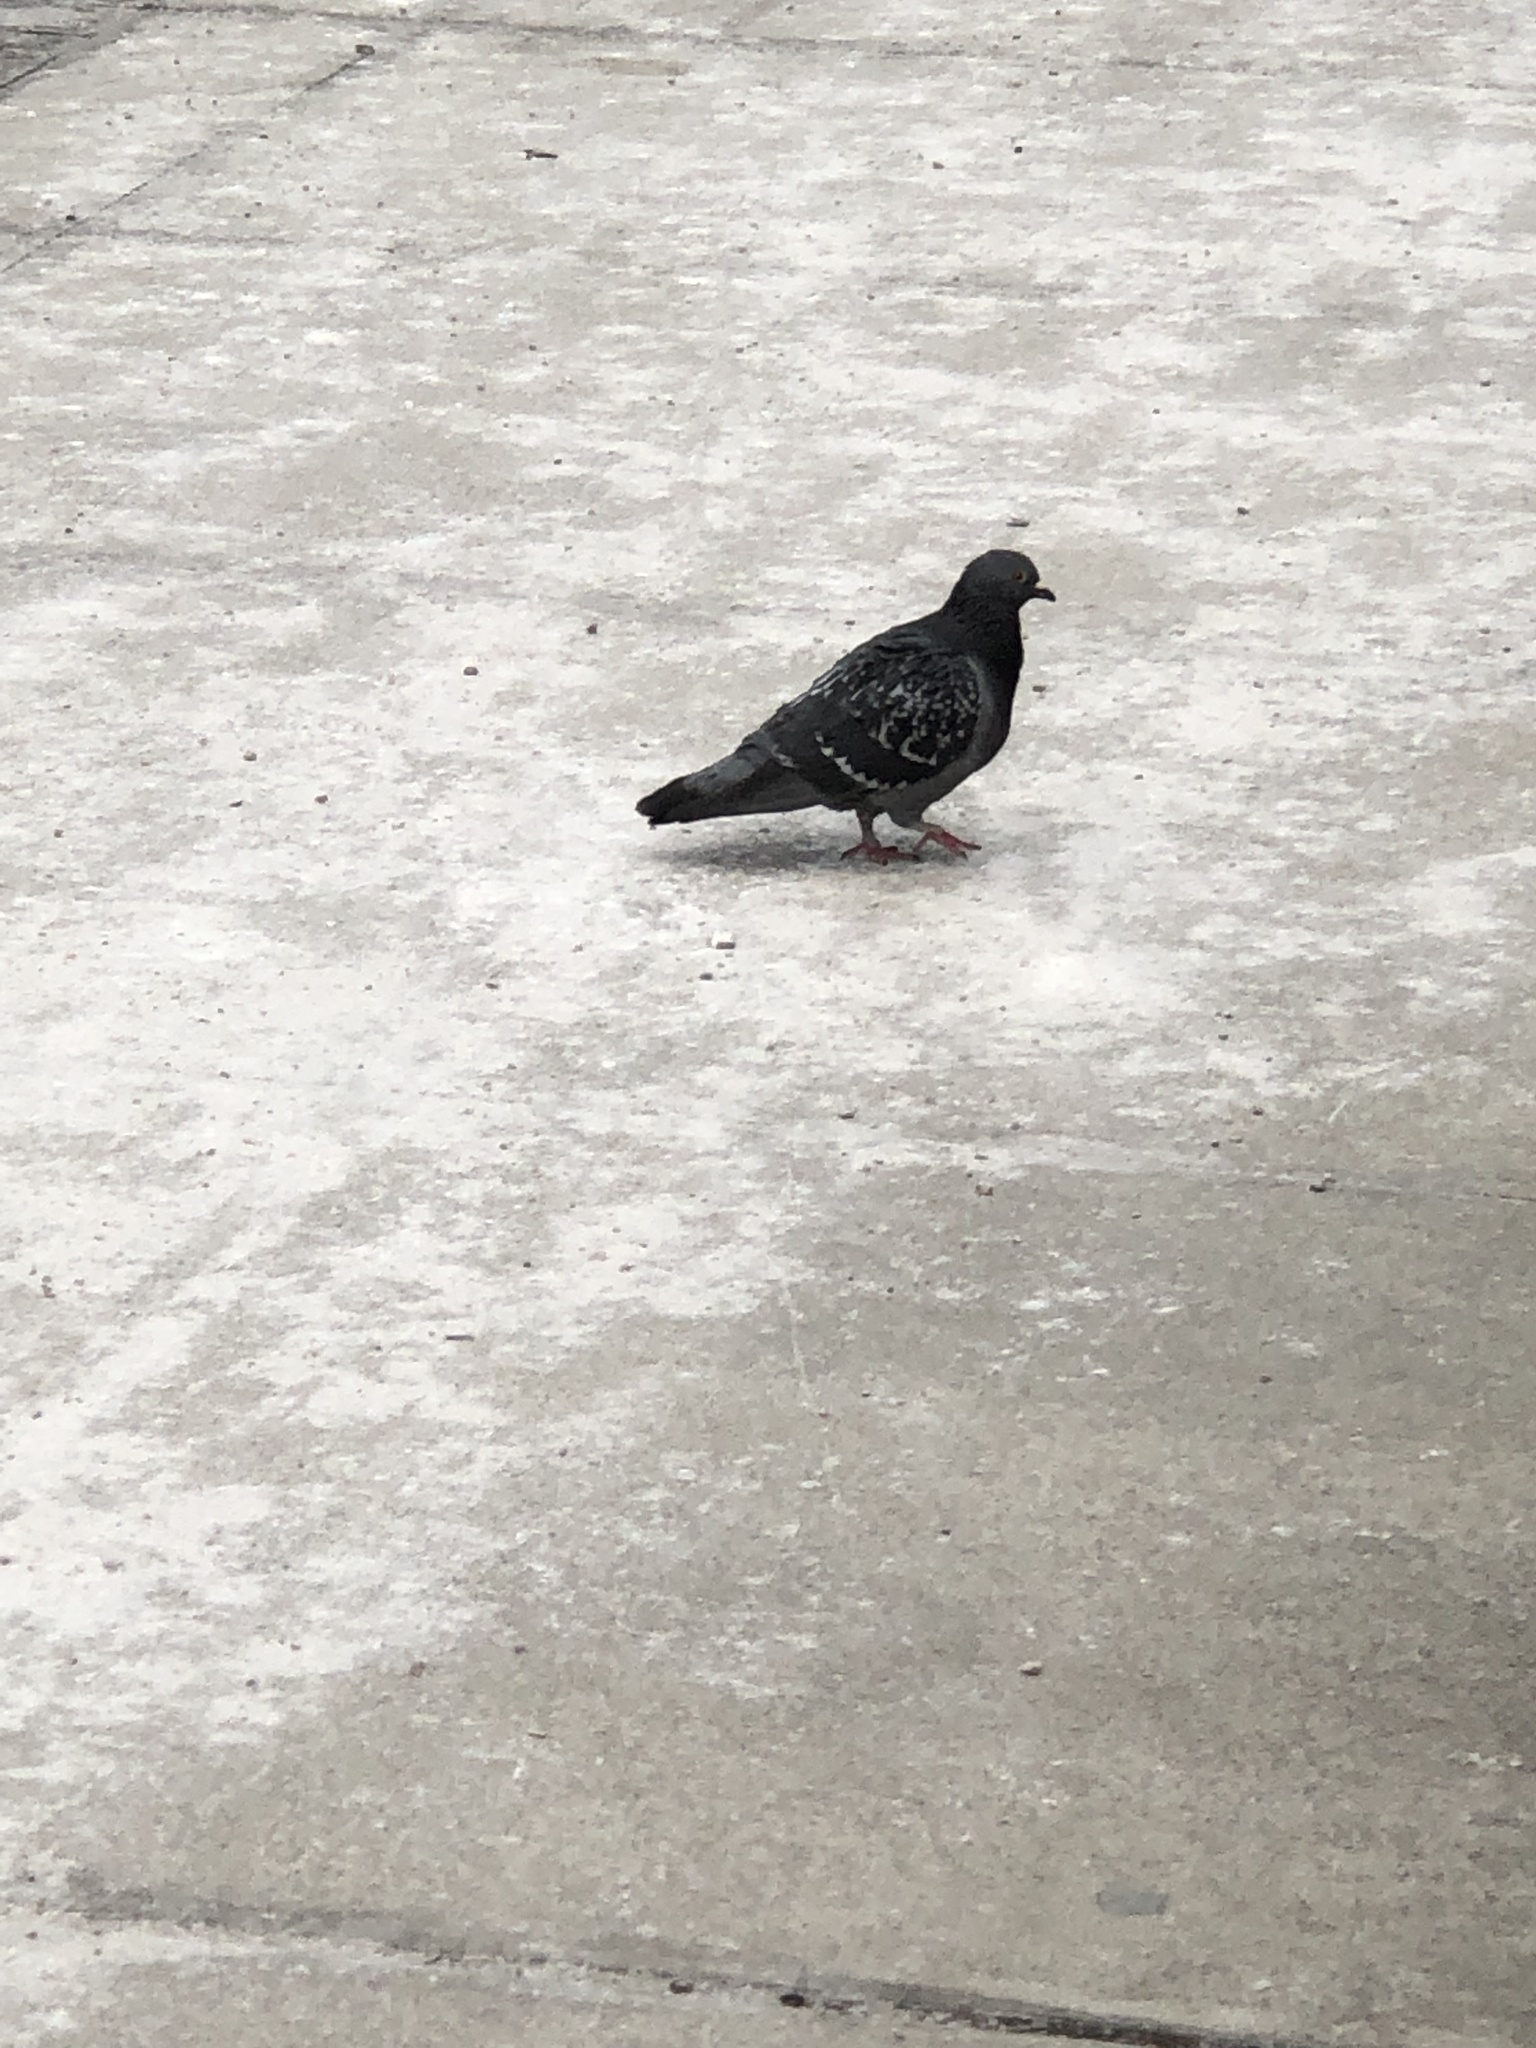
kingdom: Animalia
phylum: Chordata
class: Aves
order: Columbiformes
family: Columbidae
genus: Columba
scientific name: Columba livia
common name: Rock pigeon
